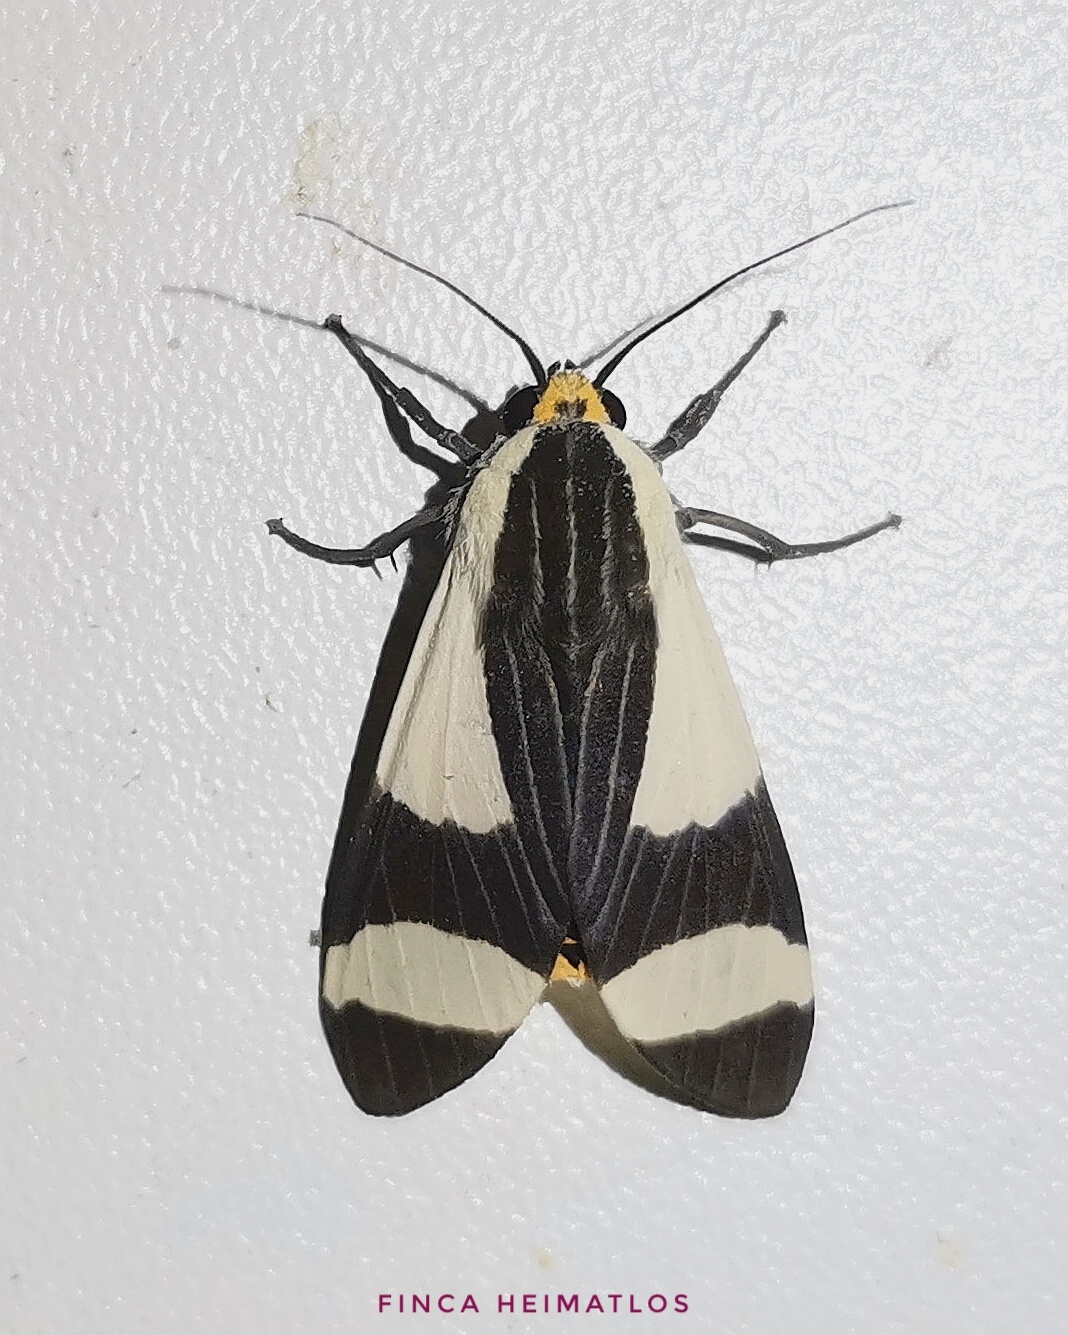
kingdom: Animalia
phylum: Arthropoda
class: Insecta
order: Lepidoptera
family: Erebidae
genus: Pryteria
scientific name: Pryteria alboatra
